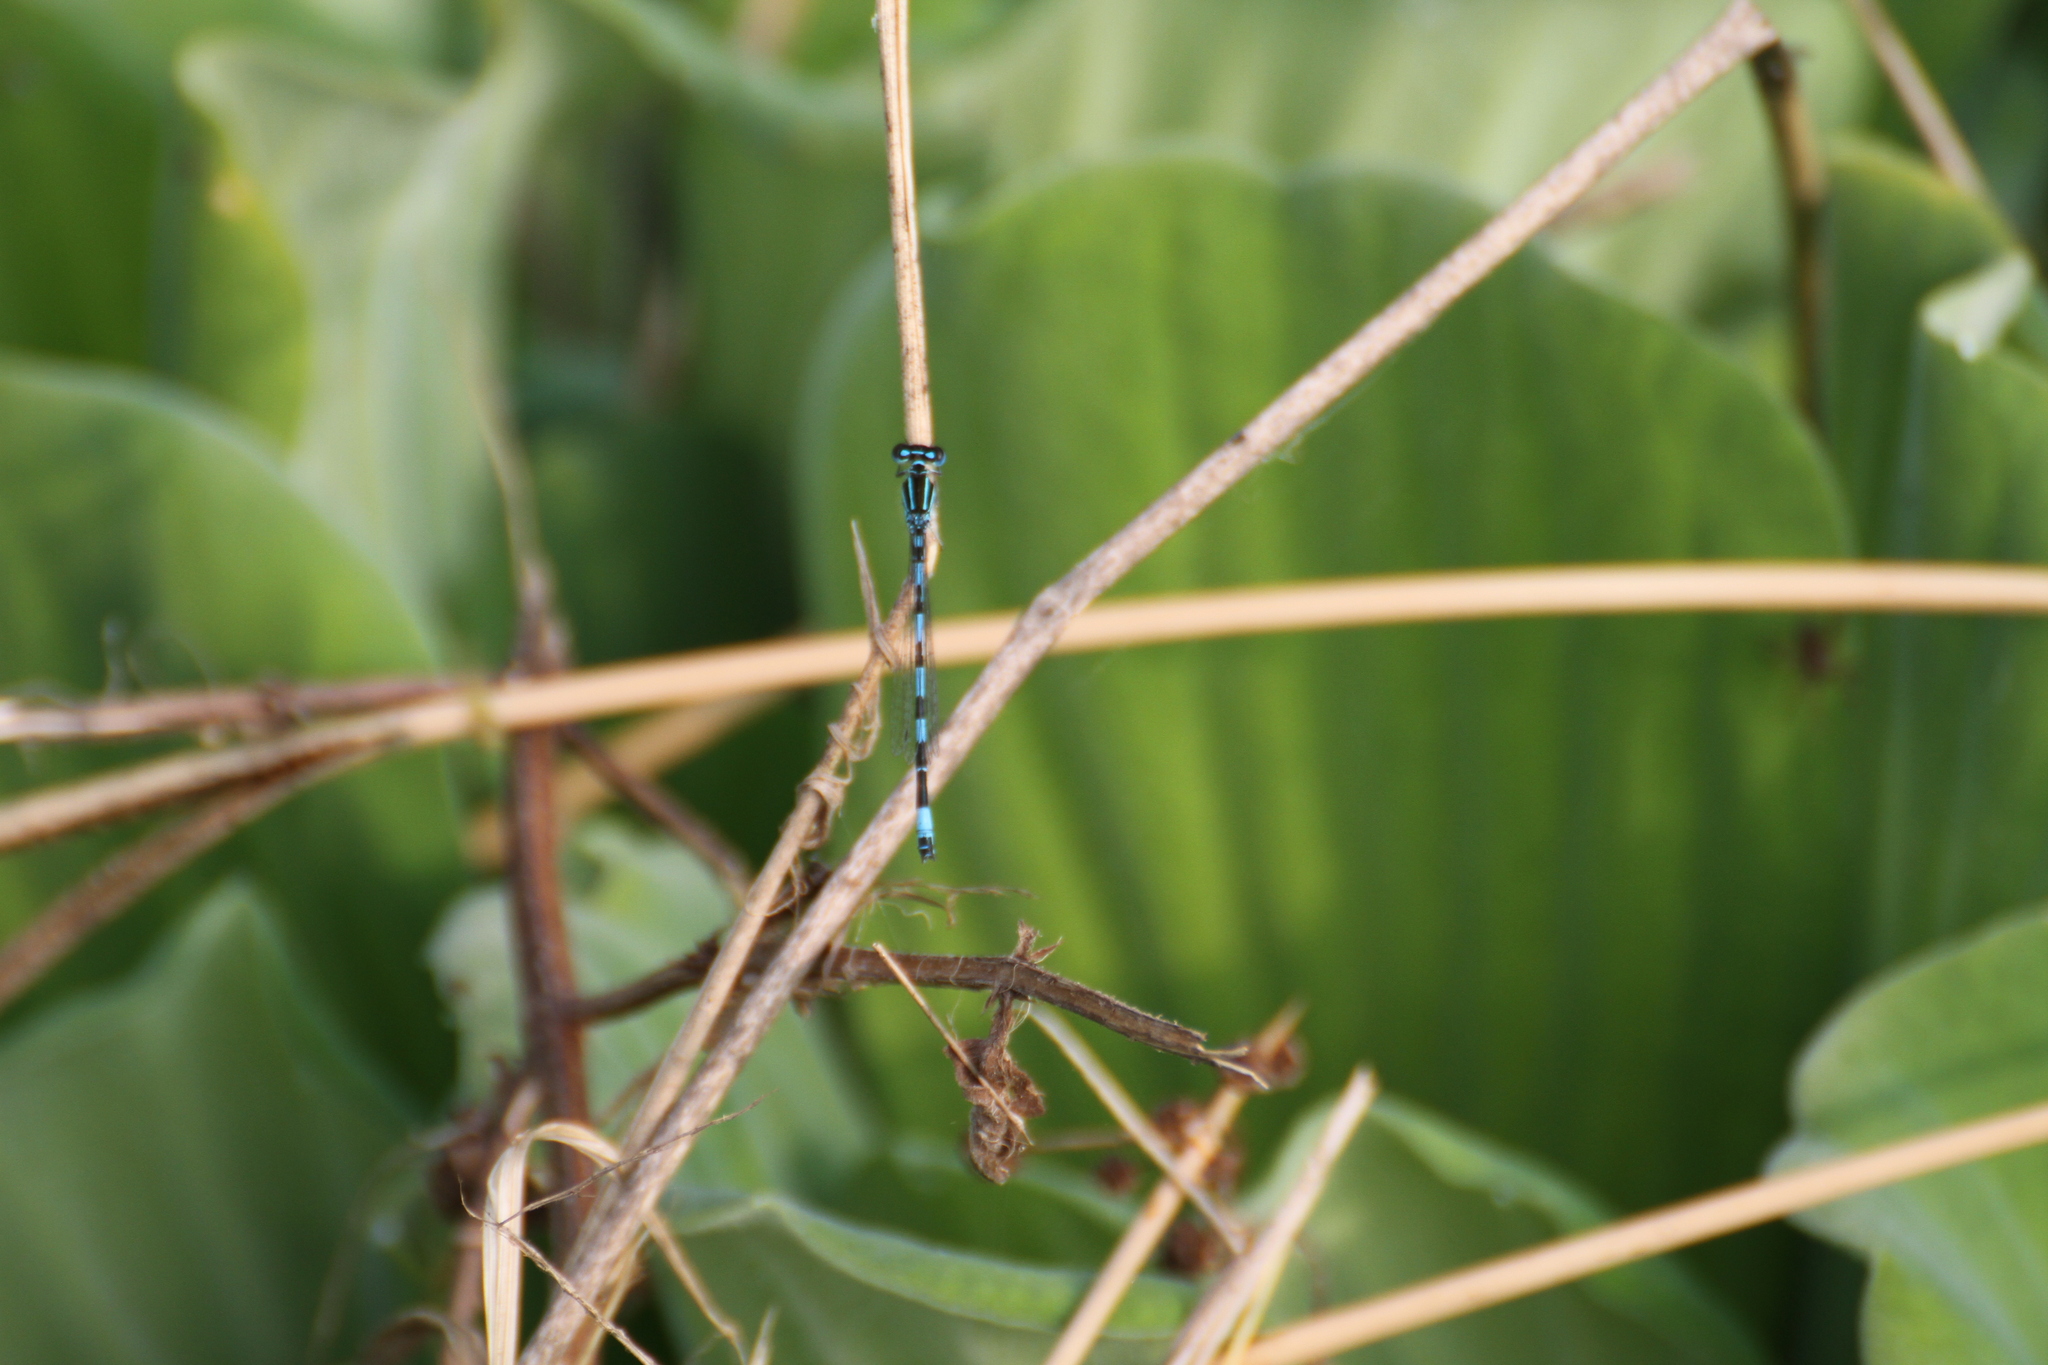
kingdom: Animalia
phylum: Arthropoda
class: Insecta
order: Odonata
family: Coenagrionidae
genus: Coenagrion
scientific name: Coenagrion mercuriale
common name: Southern damselfly
